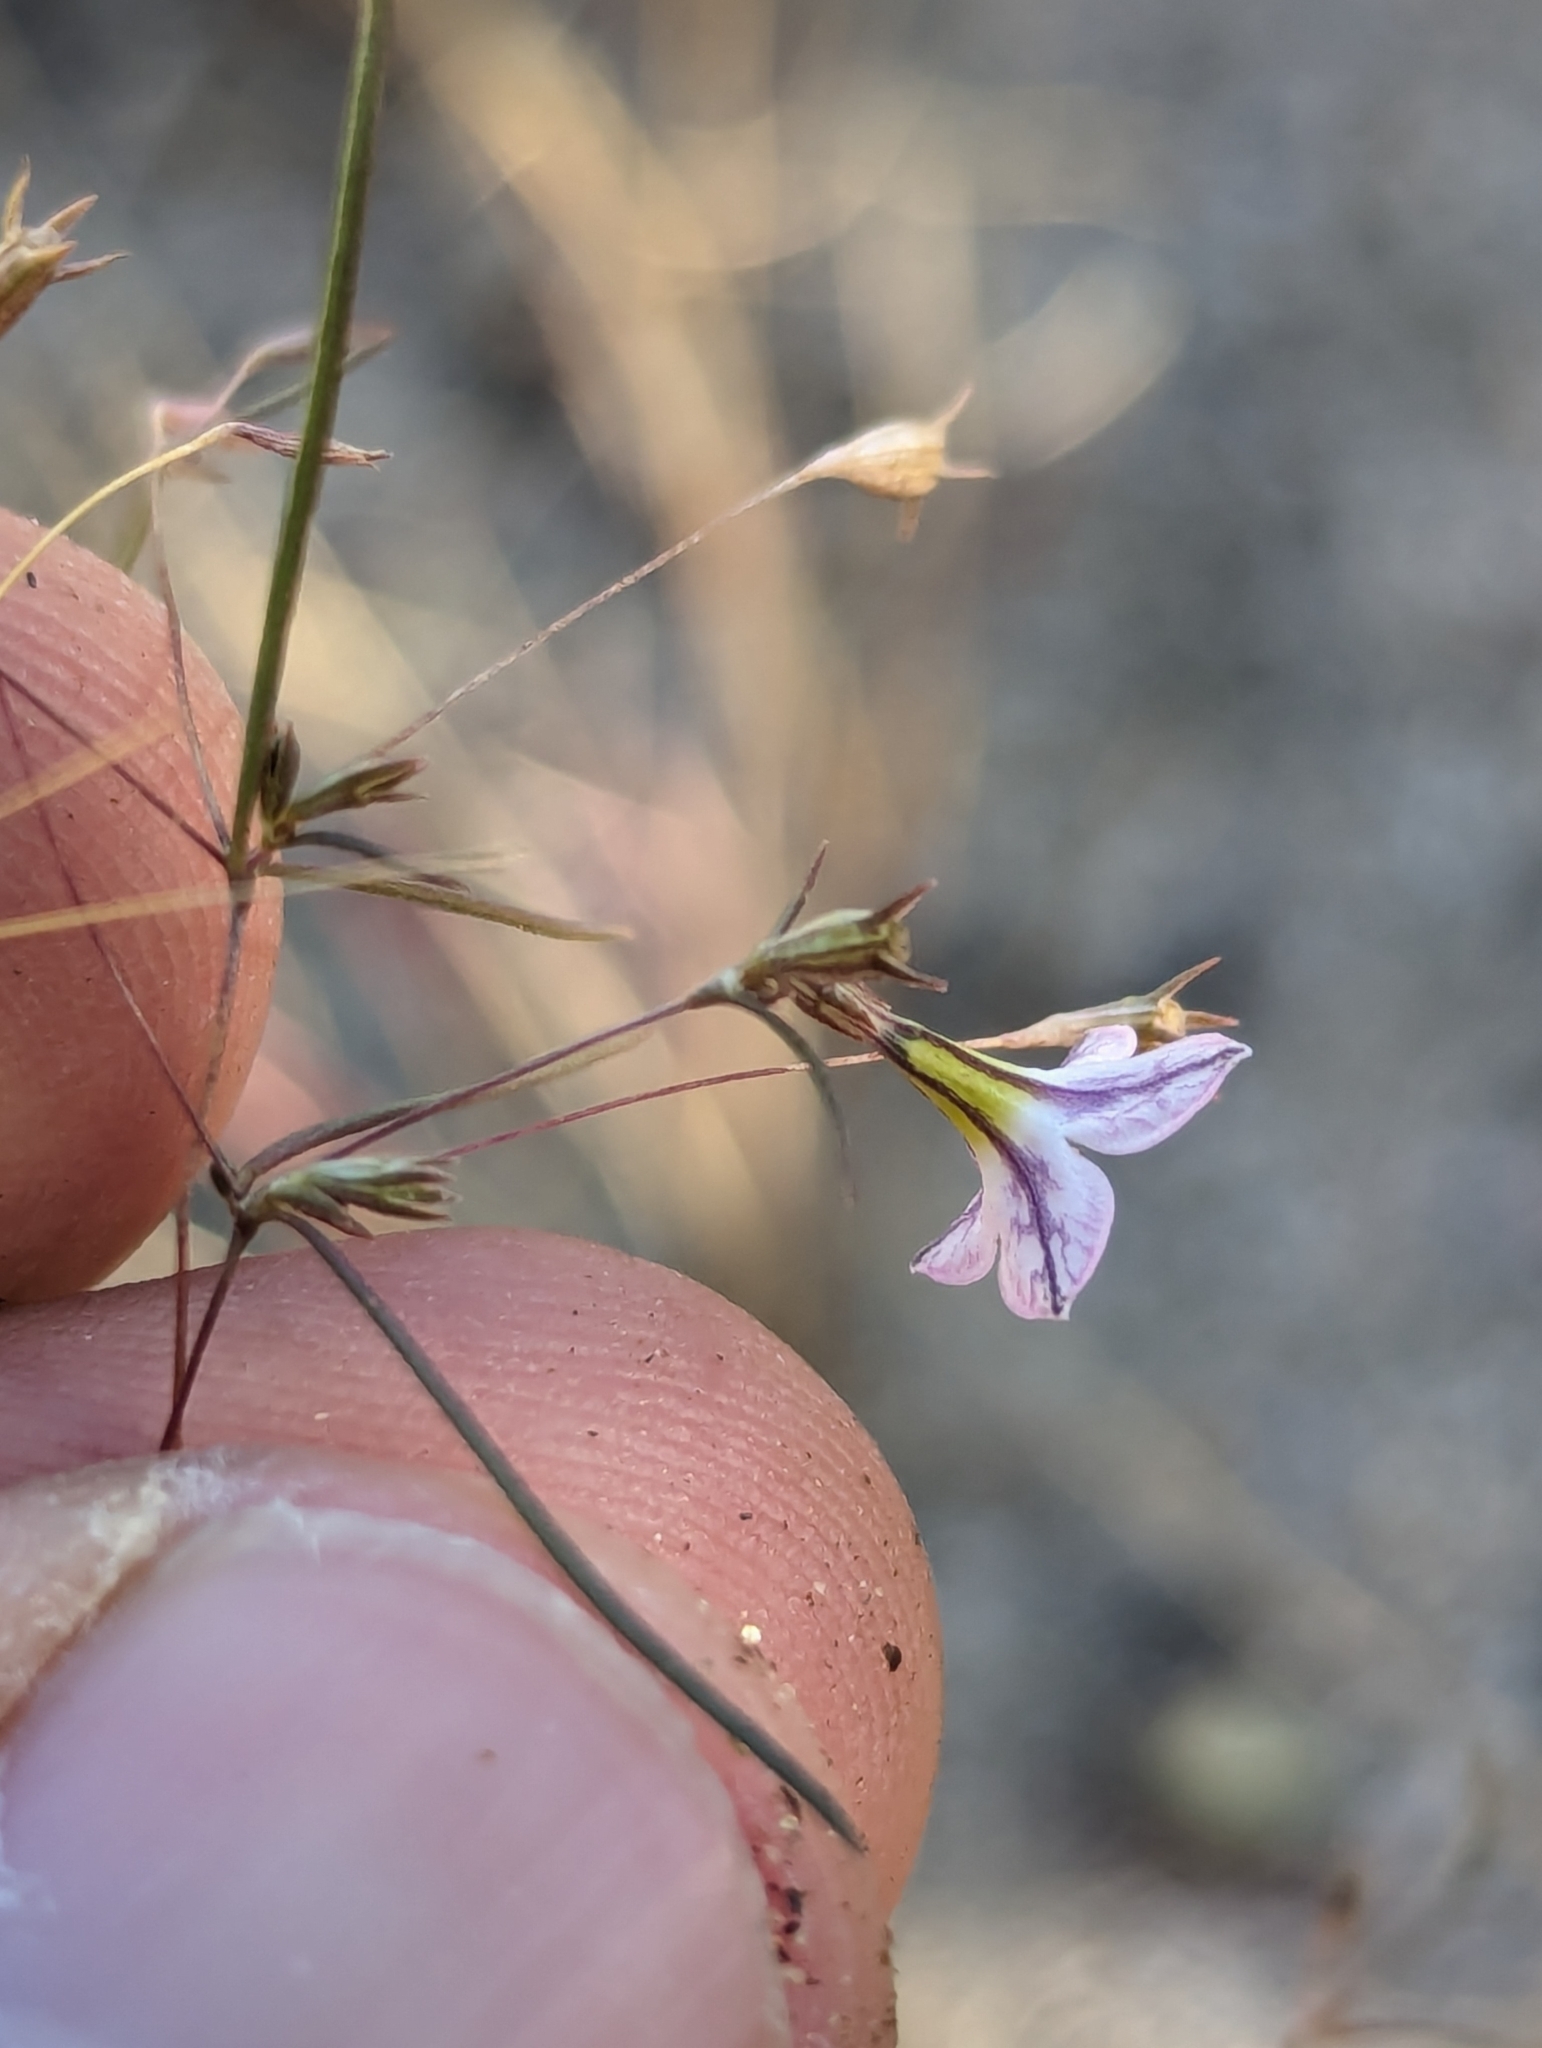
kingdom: Plantae
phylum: Tracheophyta
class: Magnoliopsida
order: Gentianales
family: Rubiaceae
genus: Stenotis
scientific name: Stenotis asperuloides
